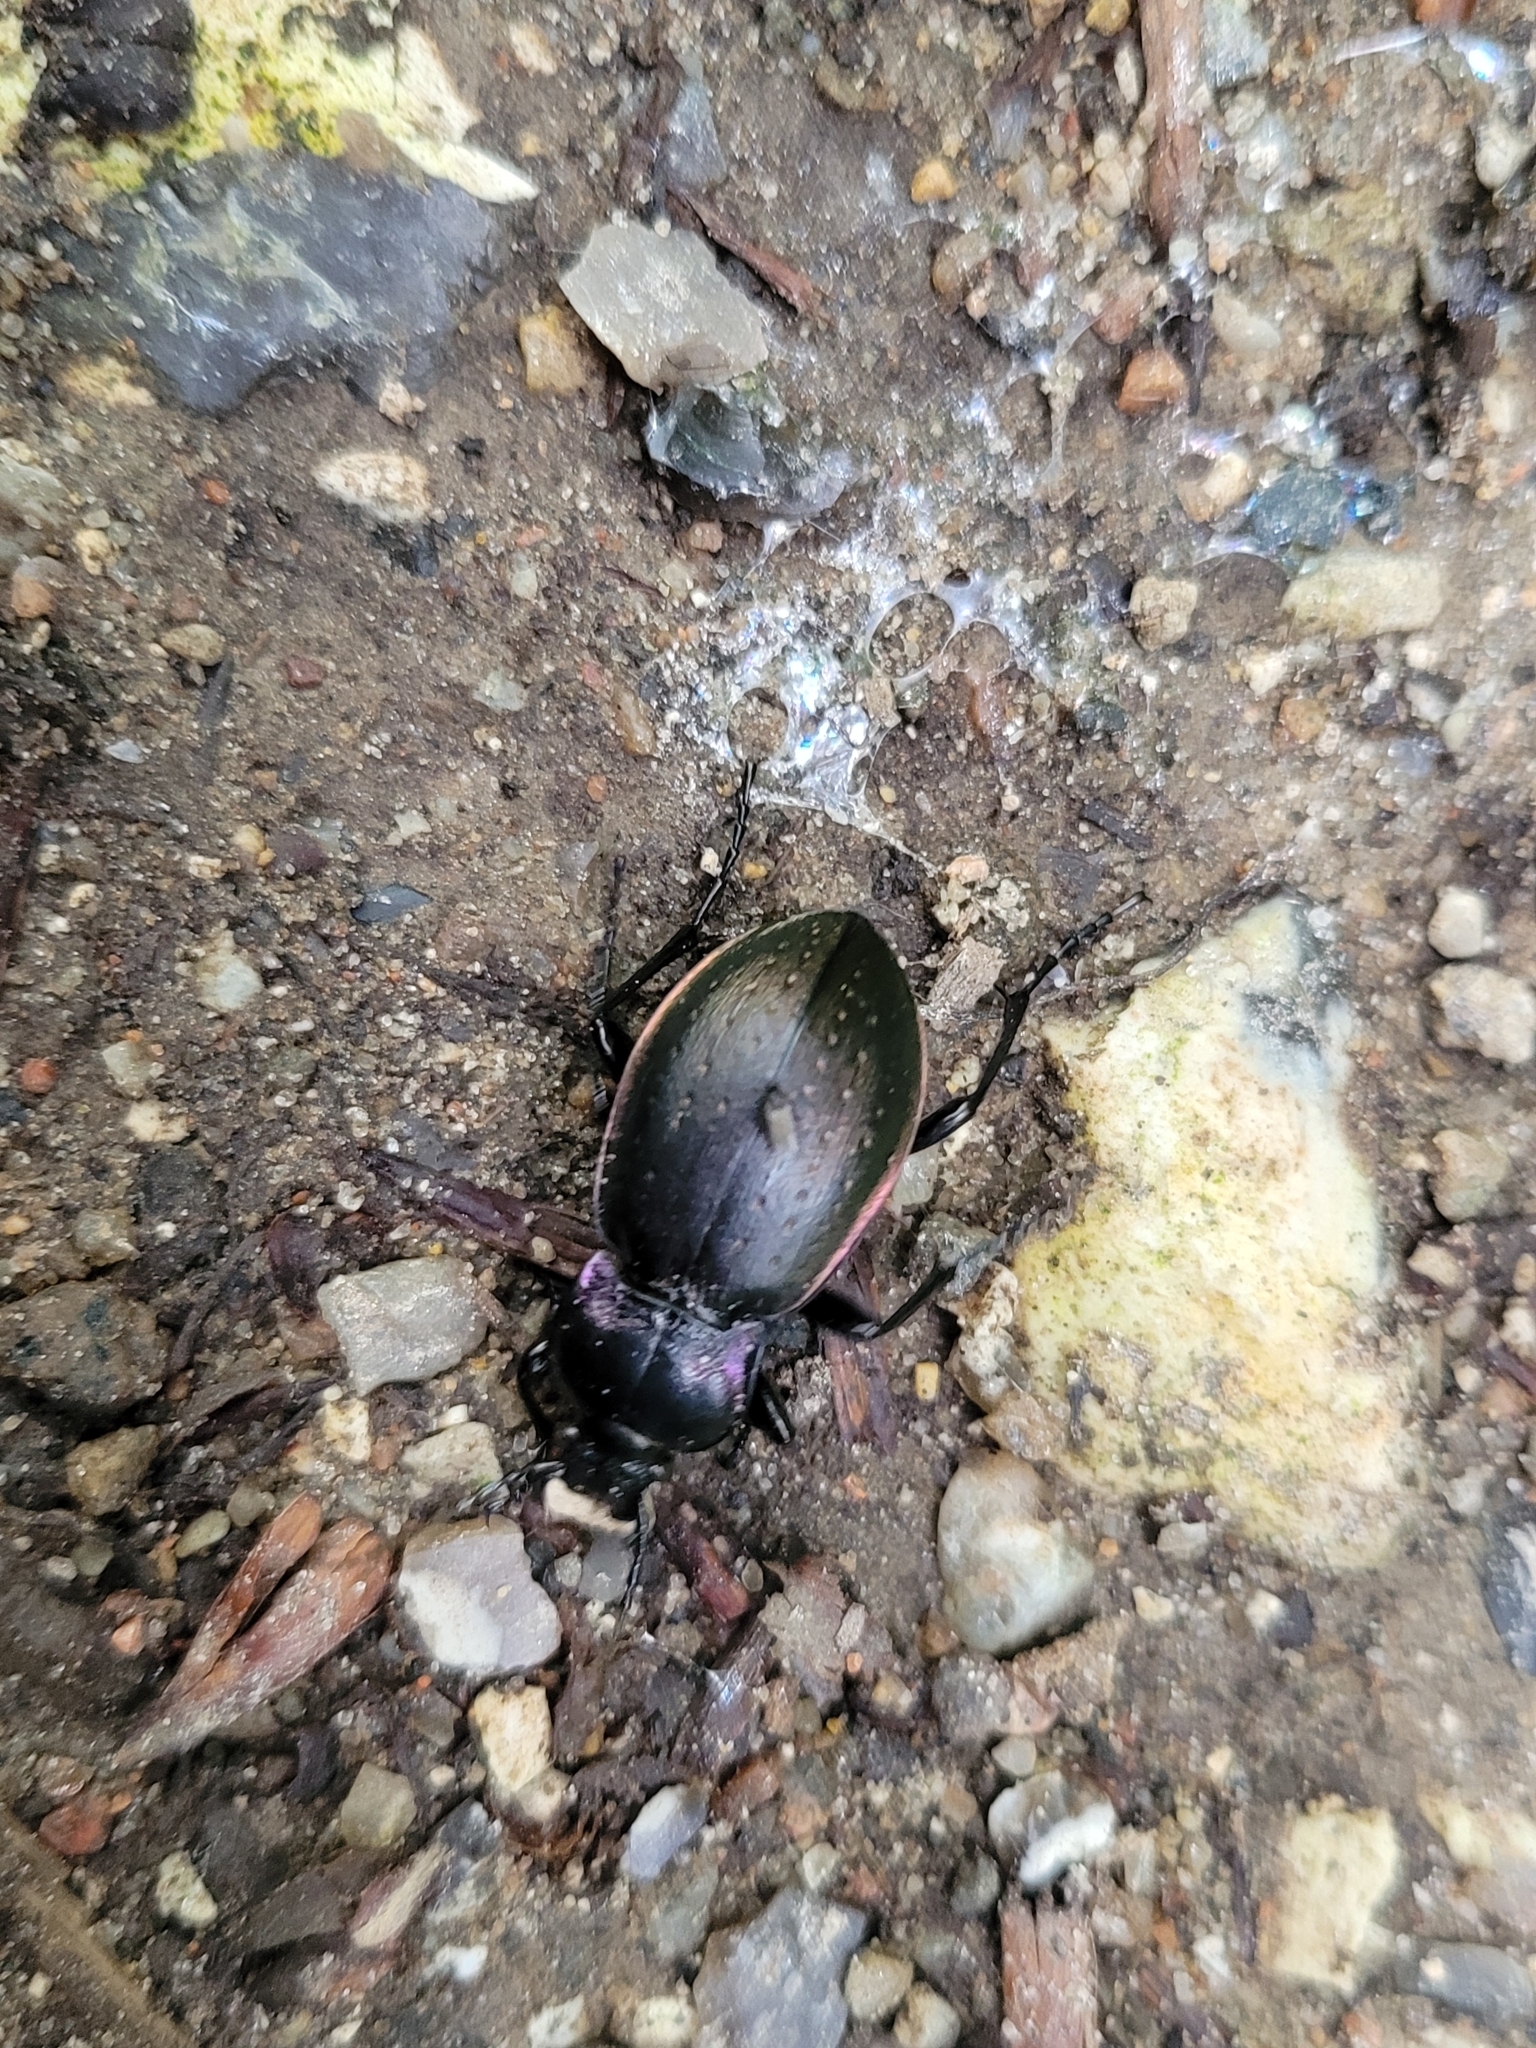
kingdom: Animalia
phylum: Arthropoda
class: Insecta
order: Coleoptera
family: Carabidae
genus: Carabus
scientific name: Carabus nemoralis
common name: European ground beetle
